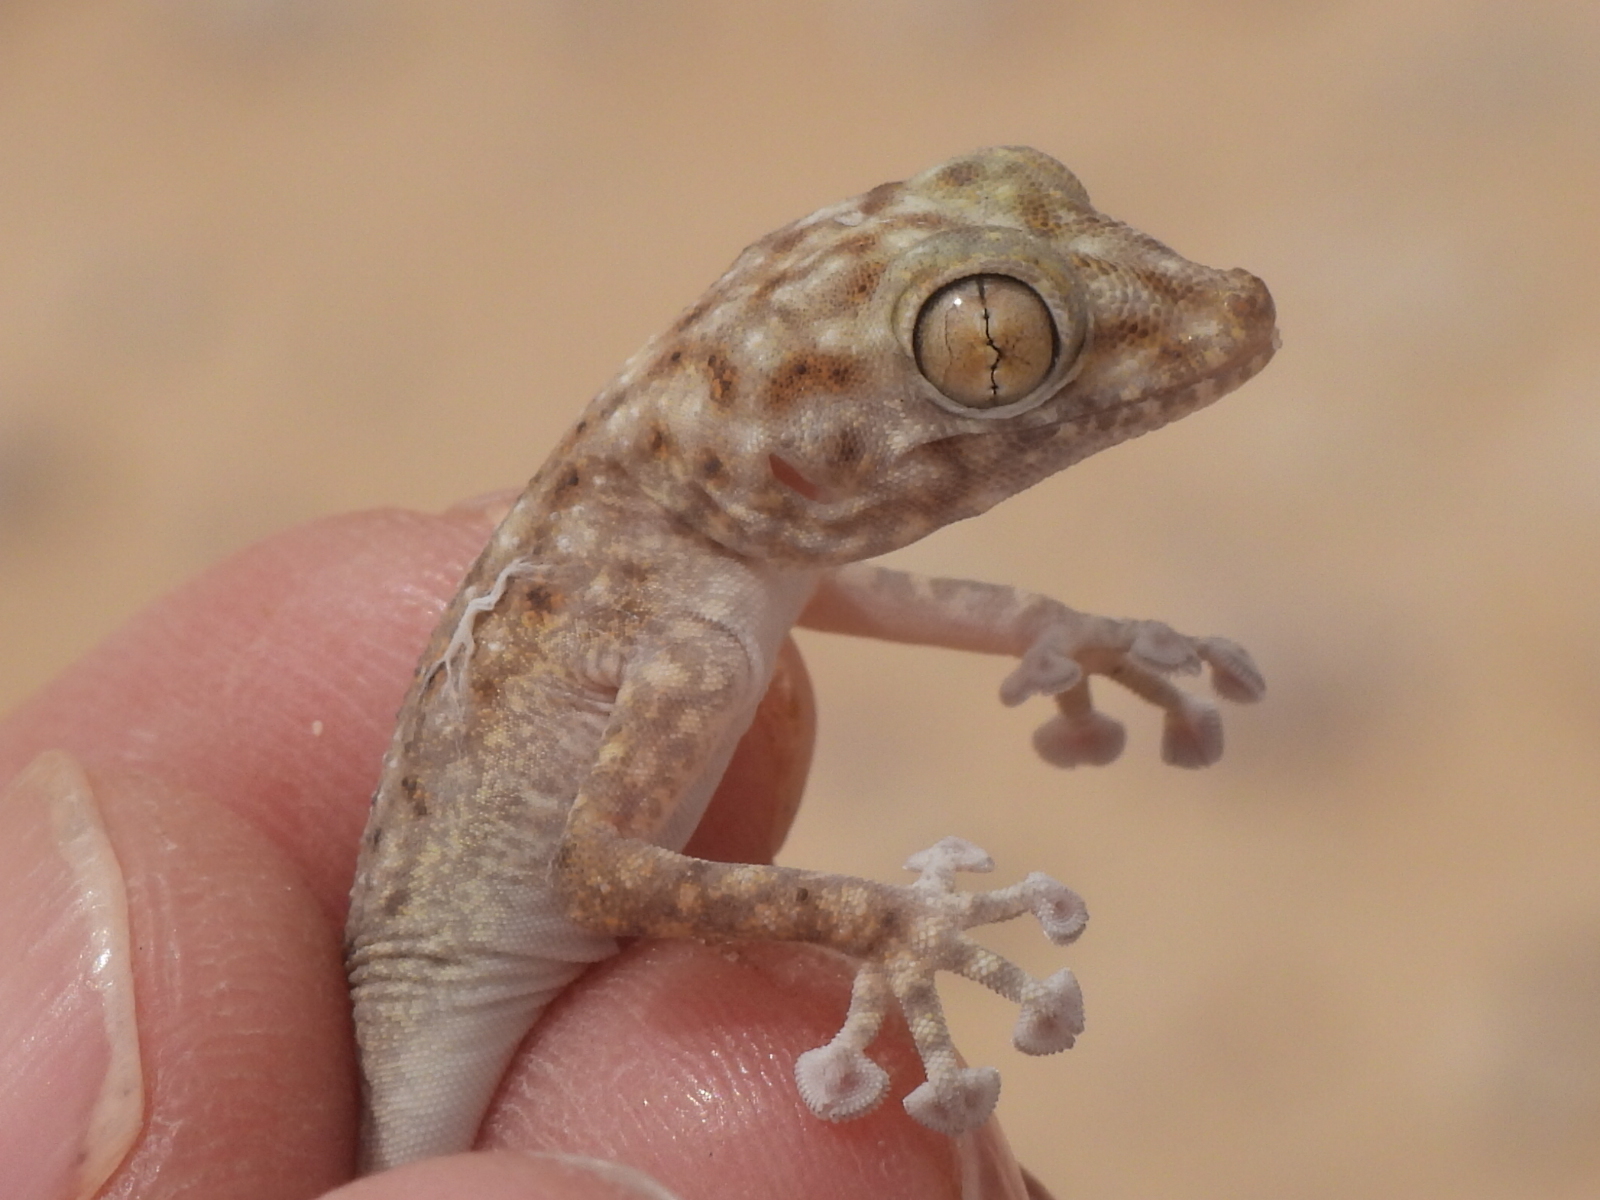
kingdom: Animalia
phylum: Chordata
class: Squamata
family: Phyllodactylidae
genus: Ptyodactylus
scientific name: Ptyodactylus hasselquistii
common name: Hasselquist’s fan-footed gecko
